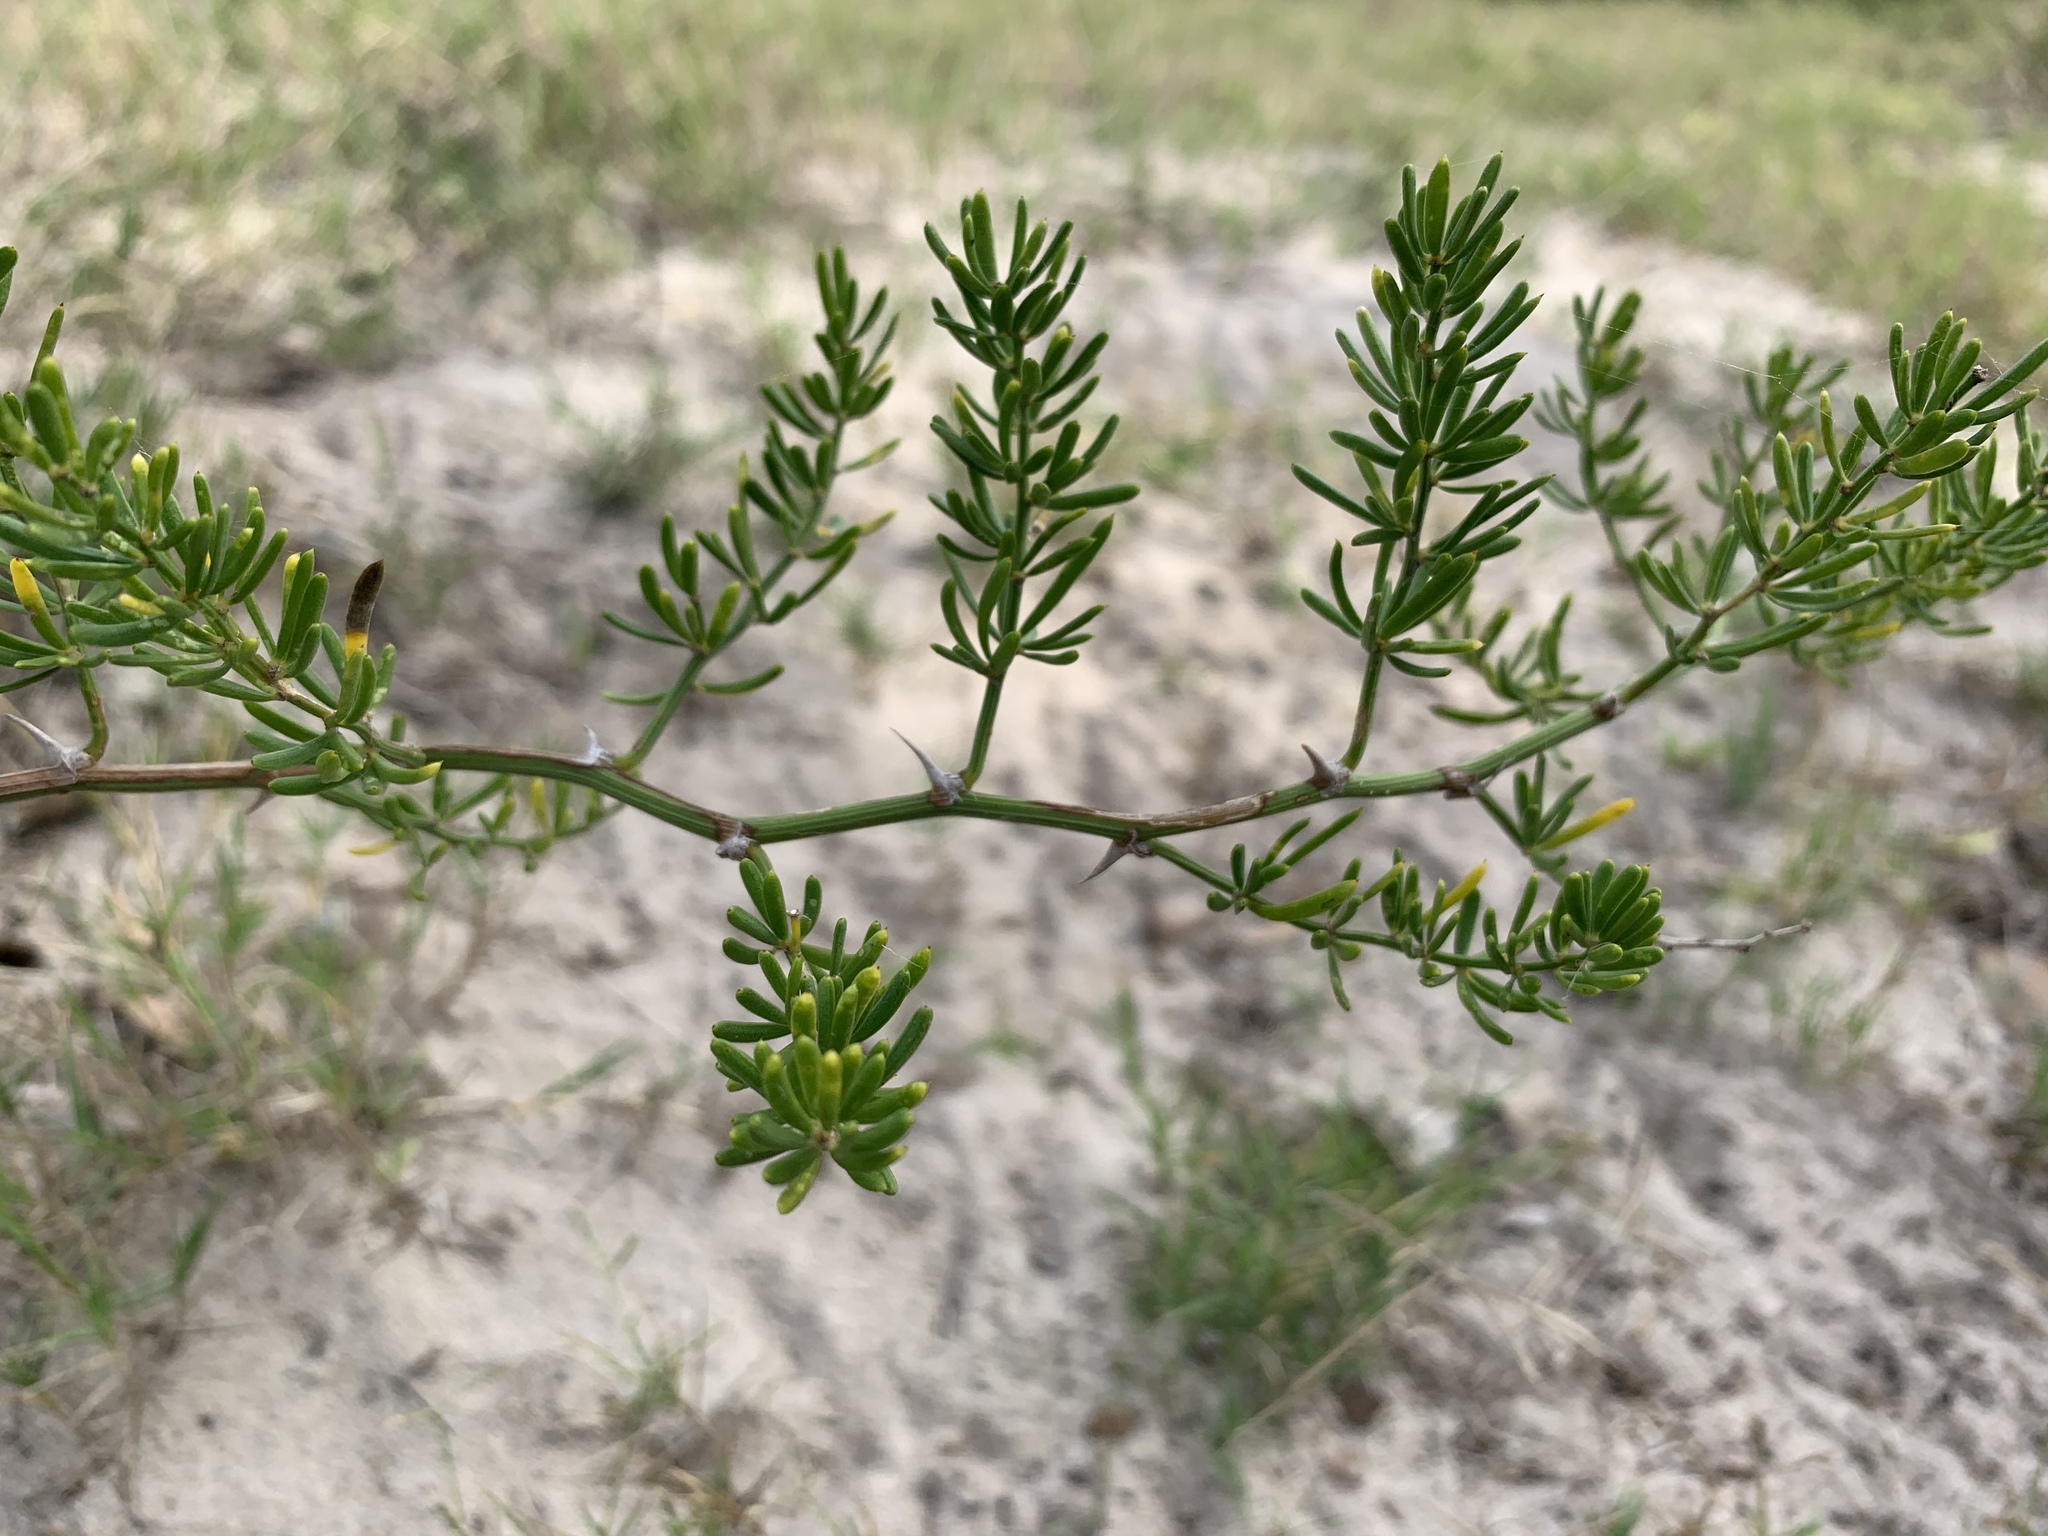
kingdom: Plantae
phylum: Tracheophyta
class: Liliopsida
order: Asparagales
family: Asparagaceae
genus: Asparagus
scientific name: Asparagus aethiopicus
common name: Sprenger's asparagus fern
